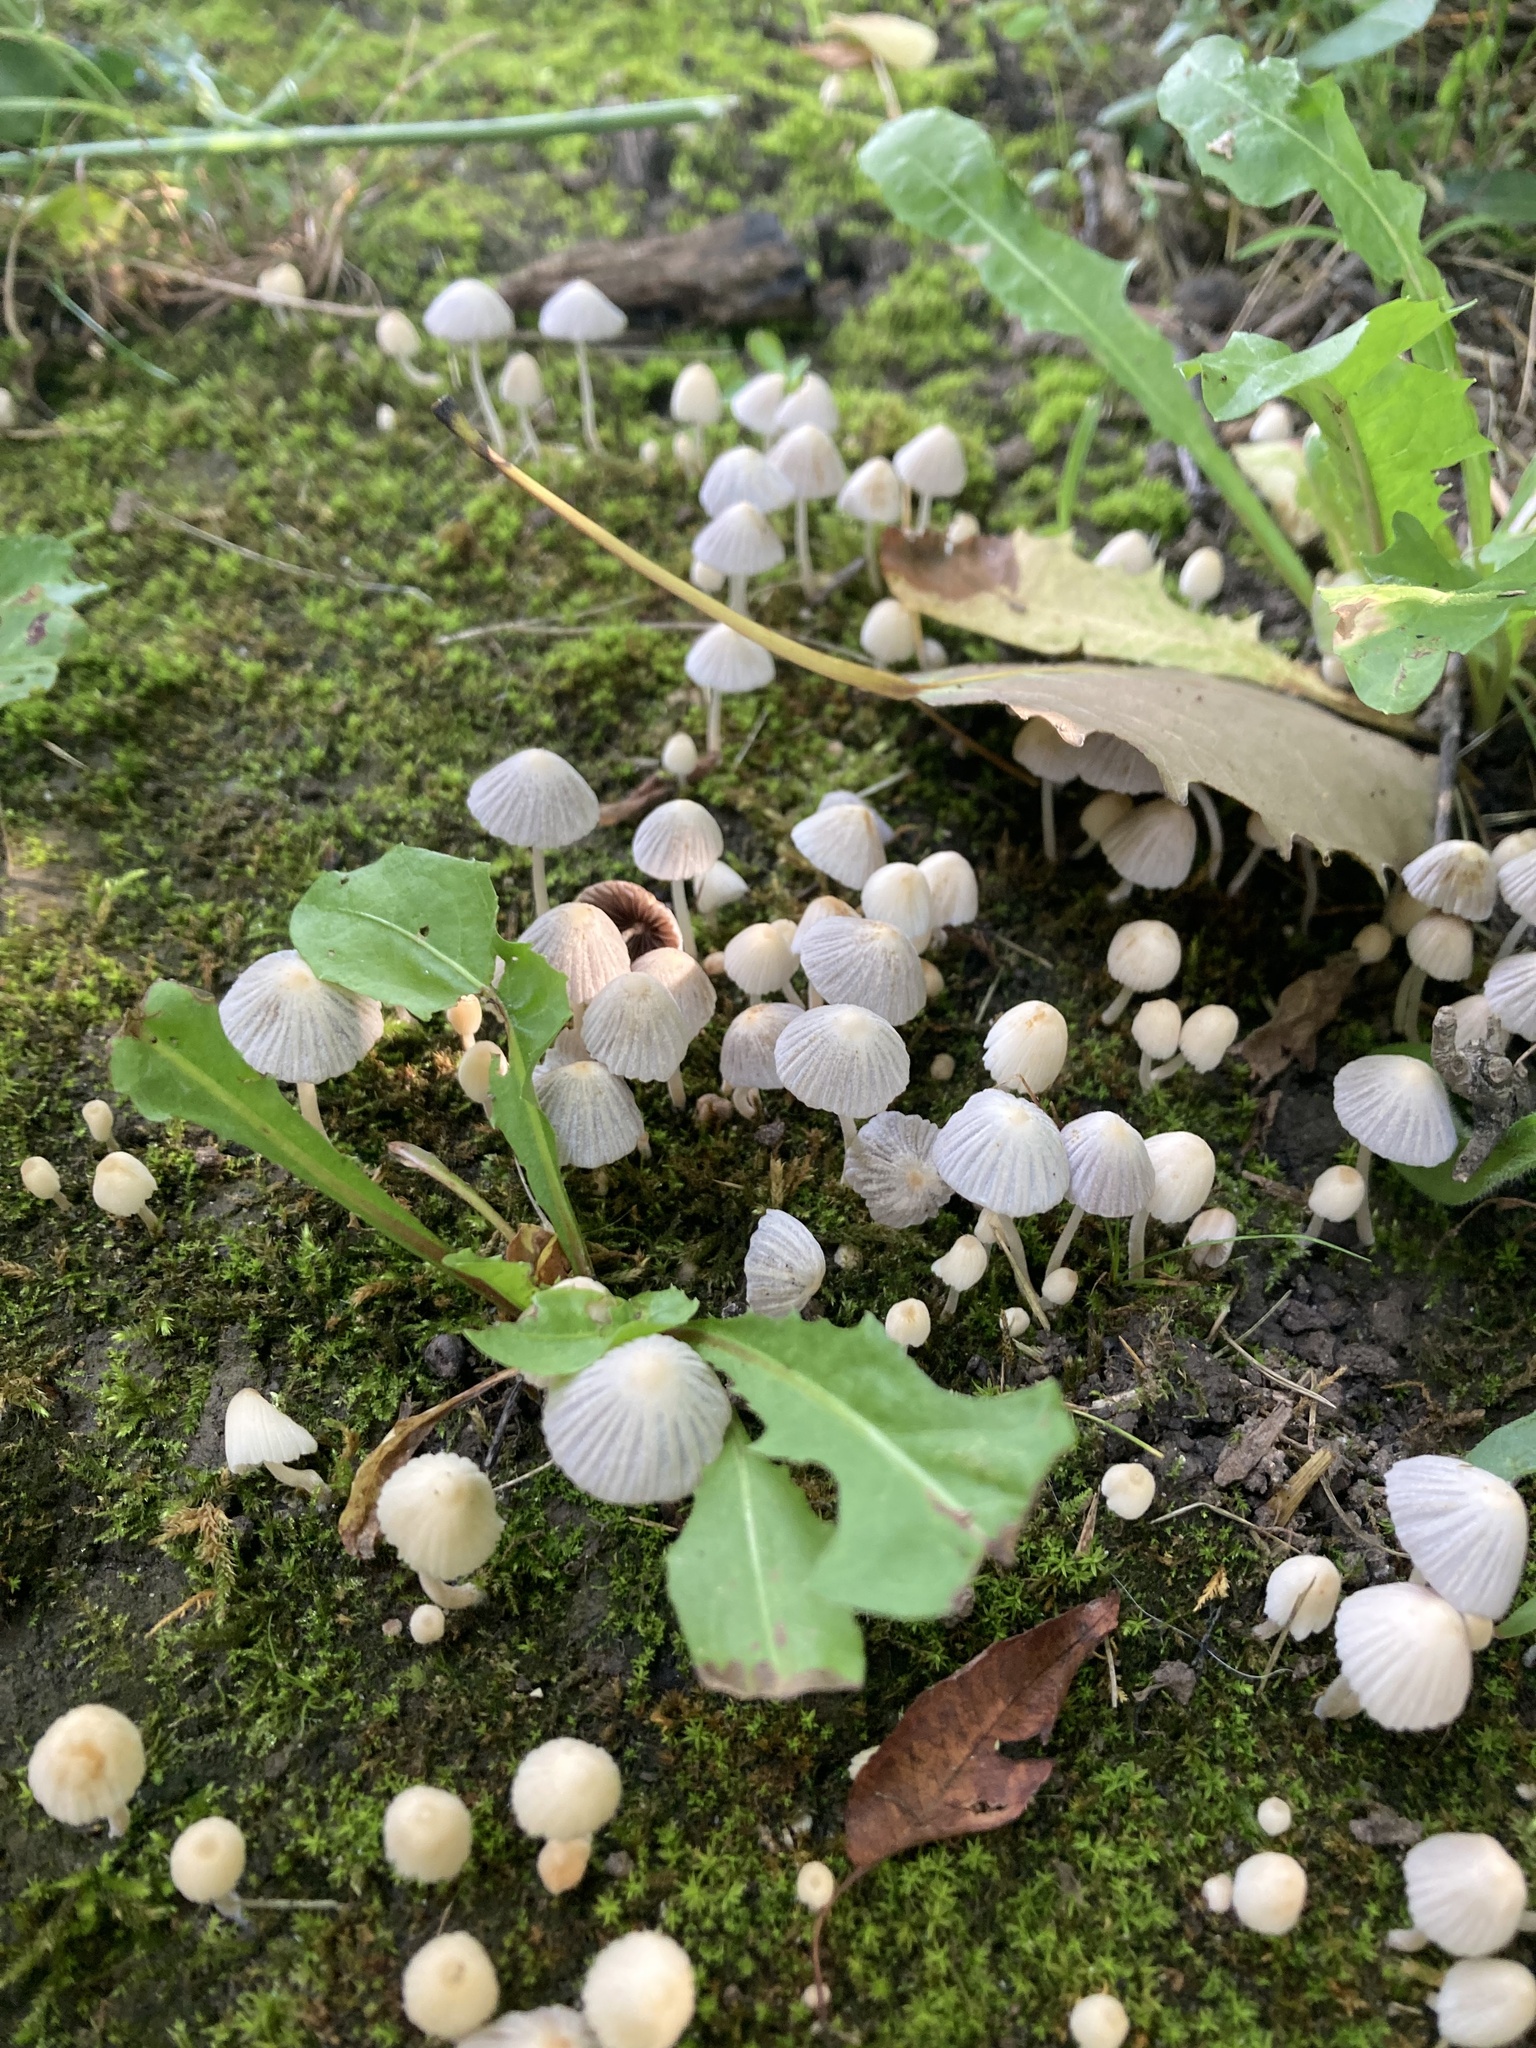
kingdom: Fungi
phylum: Basidiomycota
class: Agaricomycetes
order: Agaricales
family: Psathyrellaceae
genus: Coprinellus
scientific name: Coprinellus disseminatus
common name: Fairies' bonnets
